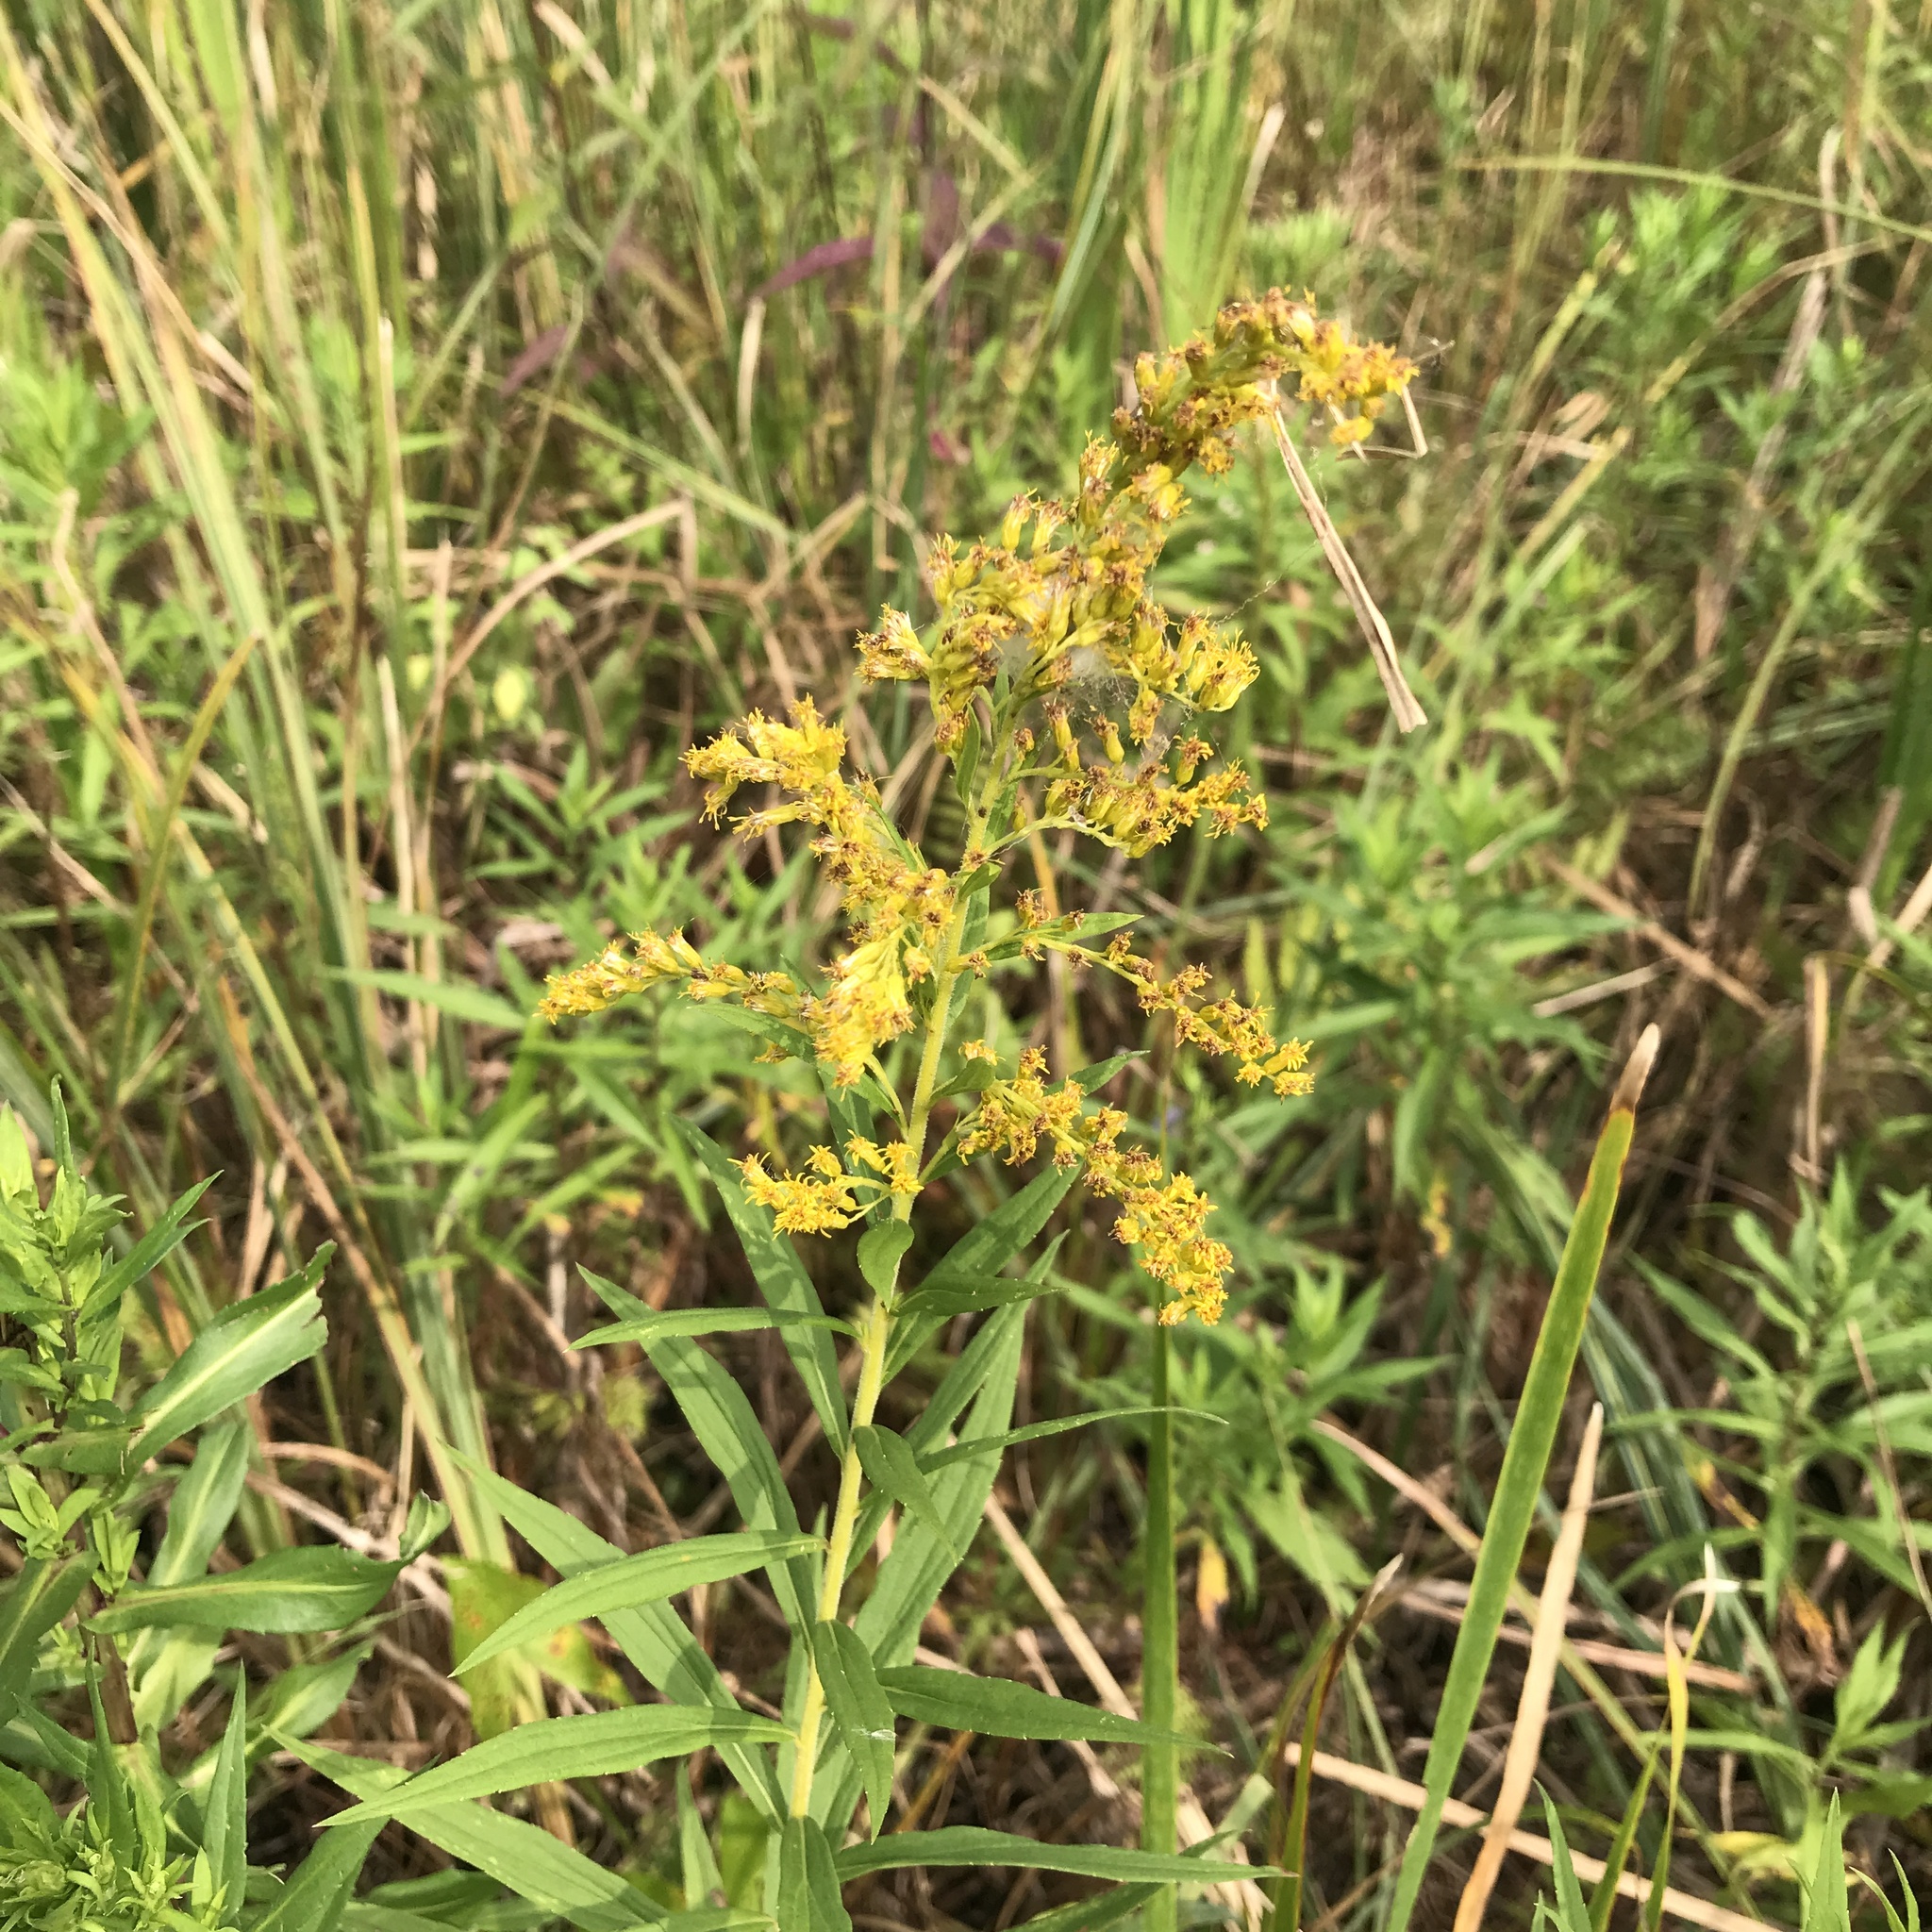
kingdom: Plantae
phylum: Tracheophyta
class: Magnoliopsida
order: Asterales
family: Asteraceae
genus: Solidago
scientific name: Solidago altissima
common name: Late goldenrod
